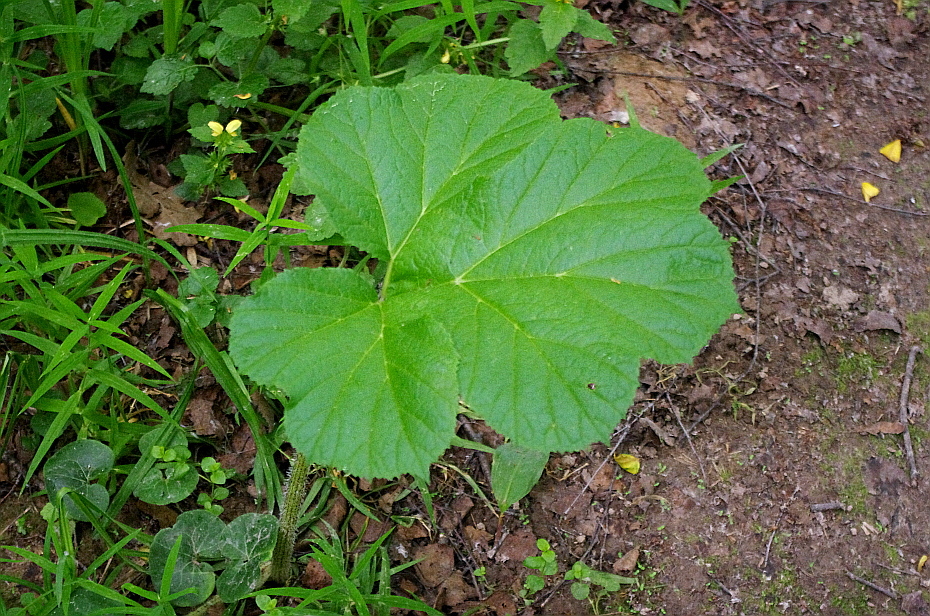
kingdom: Plantae
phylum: Tracheophyta
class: Magnoliopsida
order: Apiales
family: Apiaceae
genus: Heracleum
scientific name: Heracleum sosnowskyi
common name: Sosnowsky's hogweed
